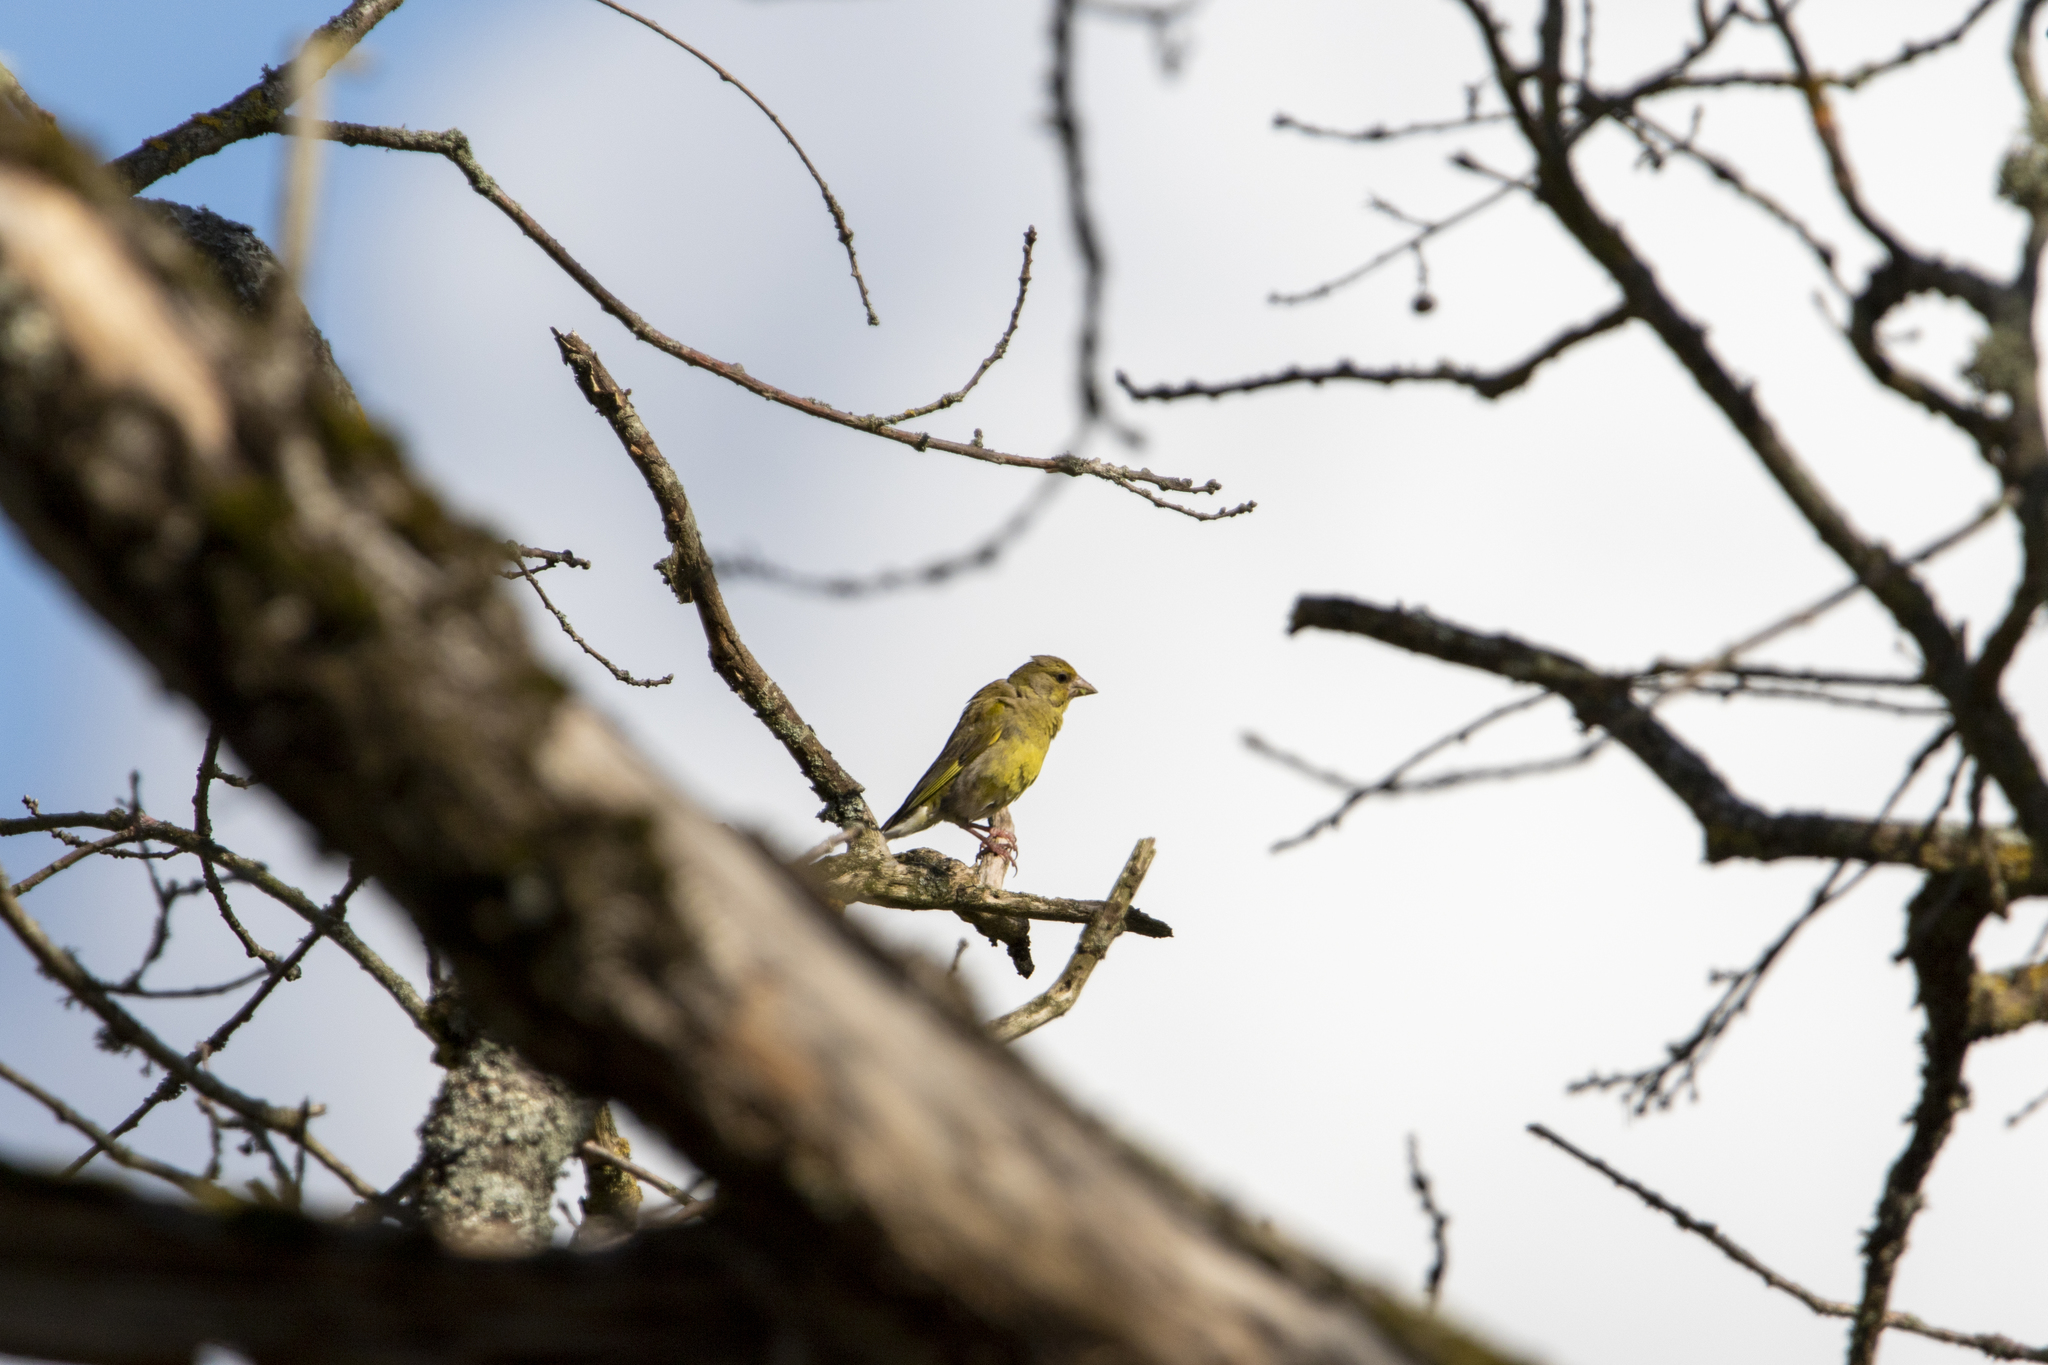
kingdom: Plantae
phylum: Tracheophyta
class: Liliopsida
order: Poales
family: Poaceae
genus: Chloris
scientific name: Chloris chloris
